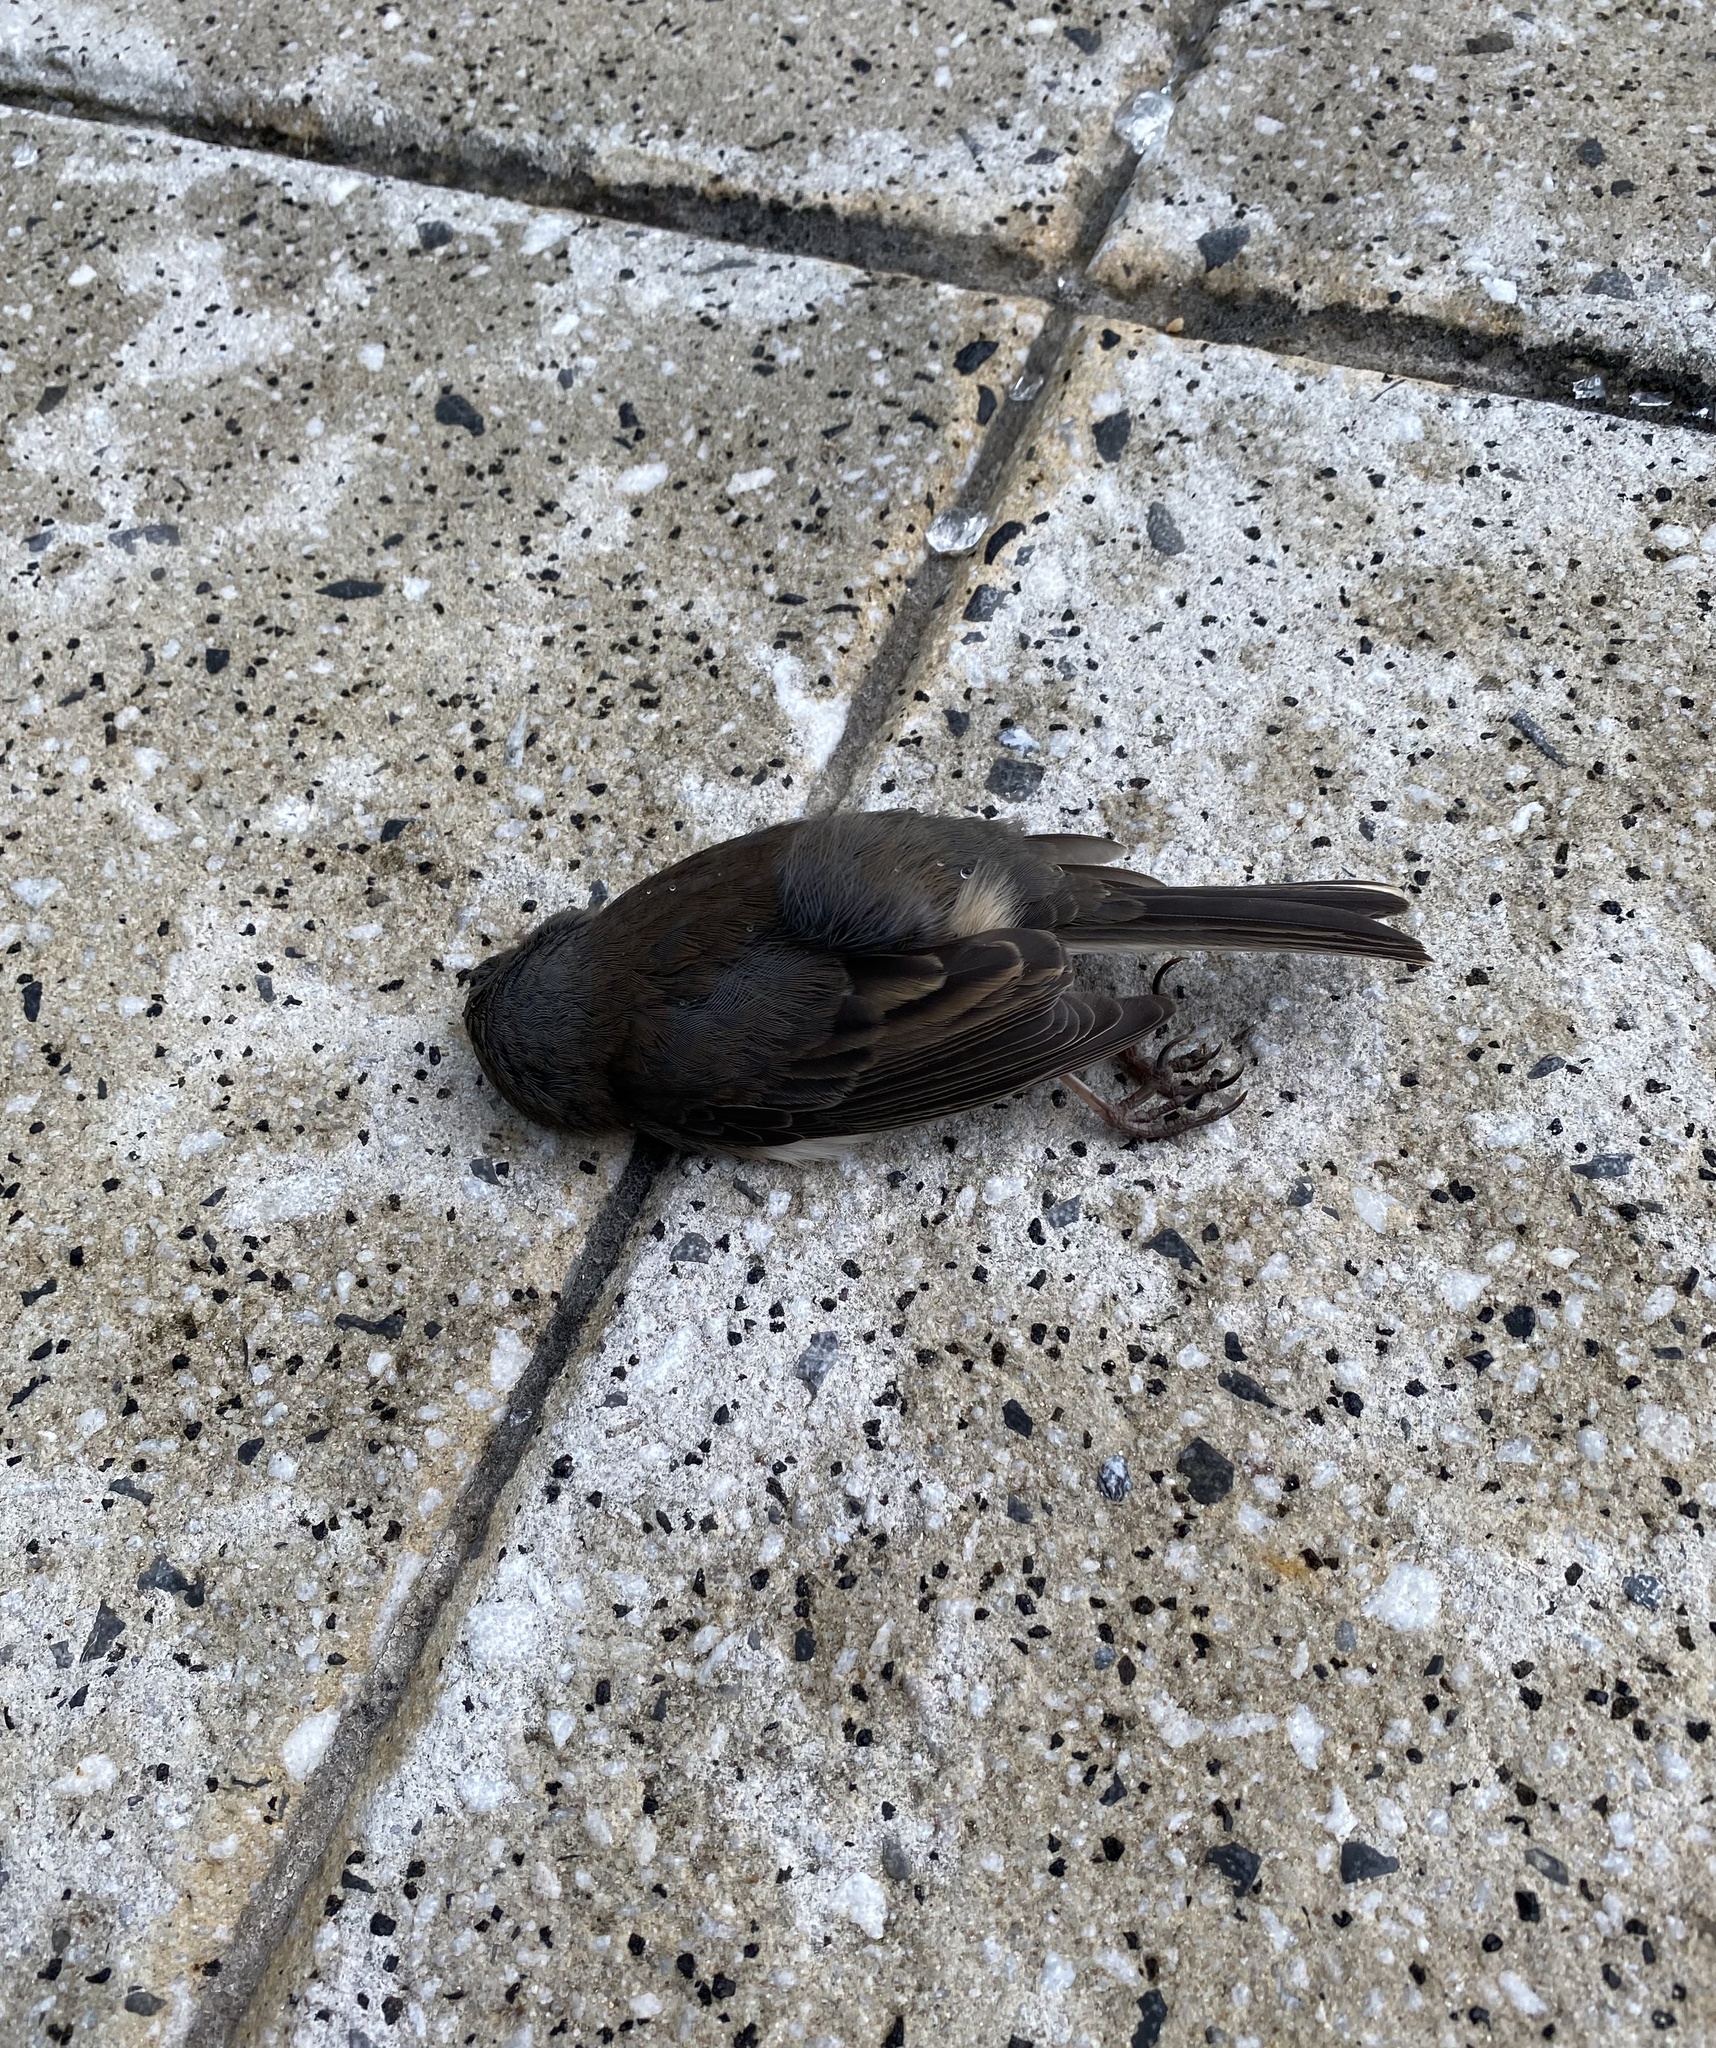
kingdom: Animalia
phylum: Chordata
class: Aves
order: Passeriformes
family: Passerellidae
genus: Junco
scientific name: Junco hyemalis
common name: Dark-eyed junco
